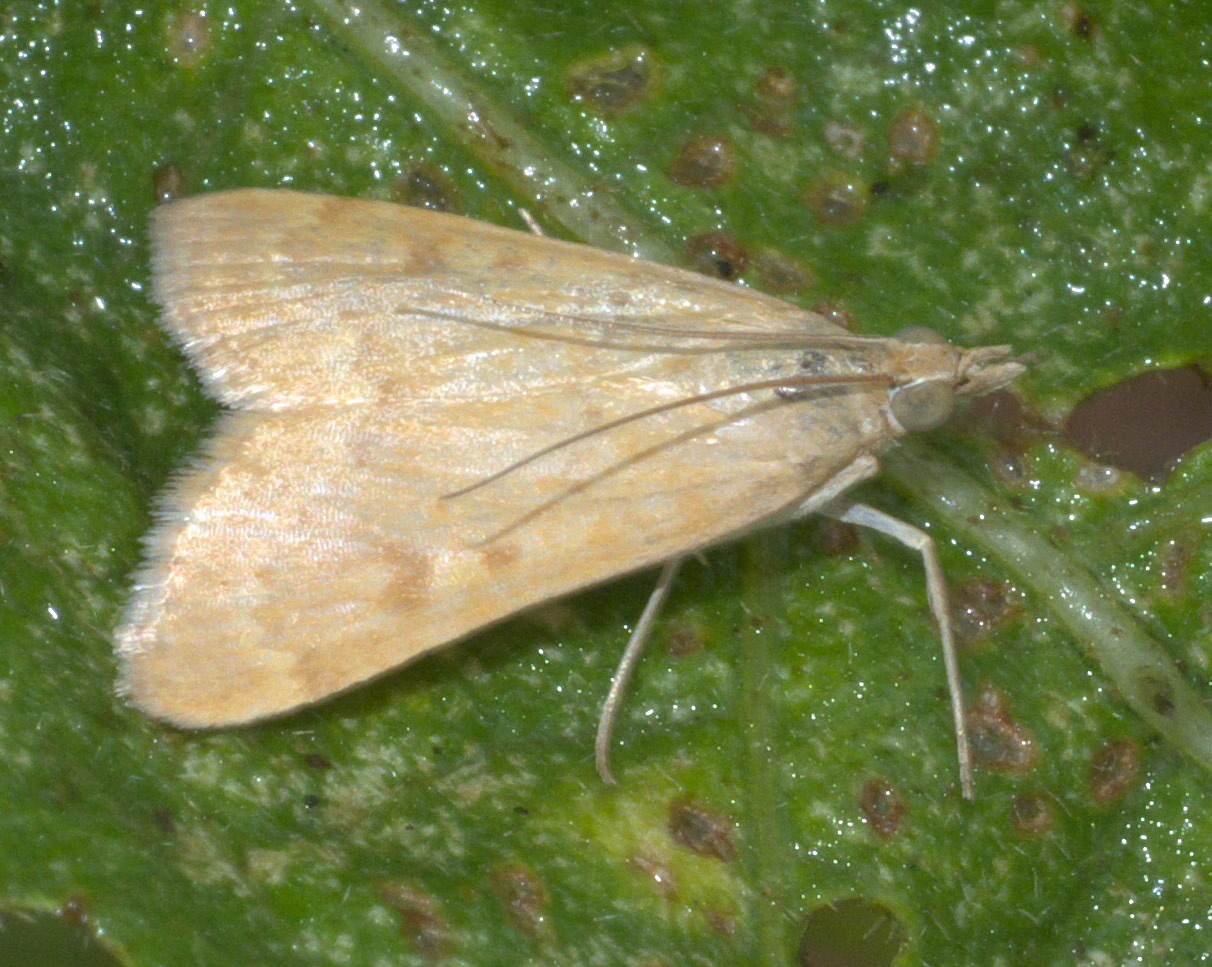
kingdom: Animalia
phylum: Arthropoda
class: Insecta
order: Lepidoptera
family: Crambidae
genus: Achyra
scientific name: Achyra rantalis
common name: Garden webworm
